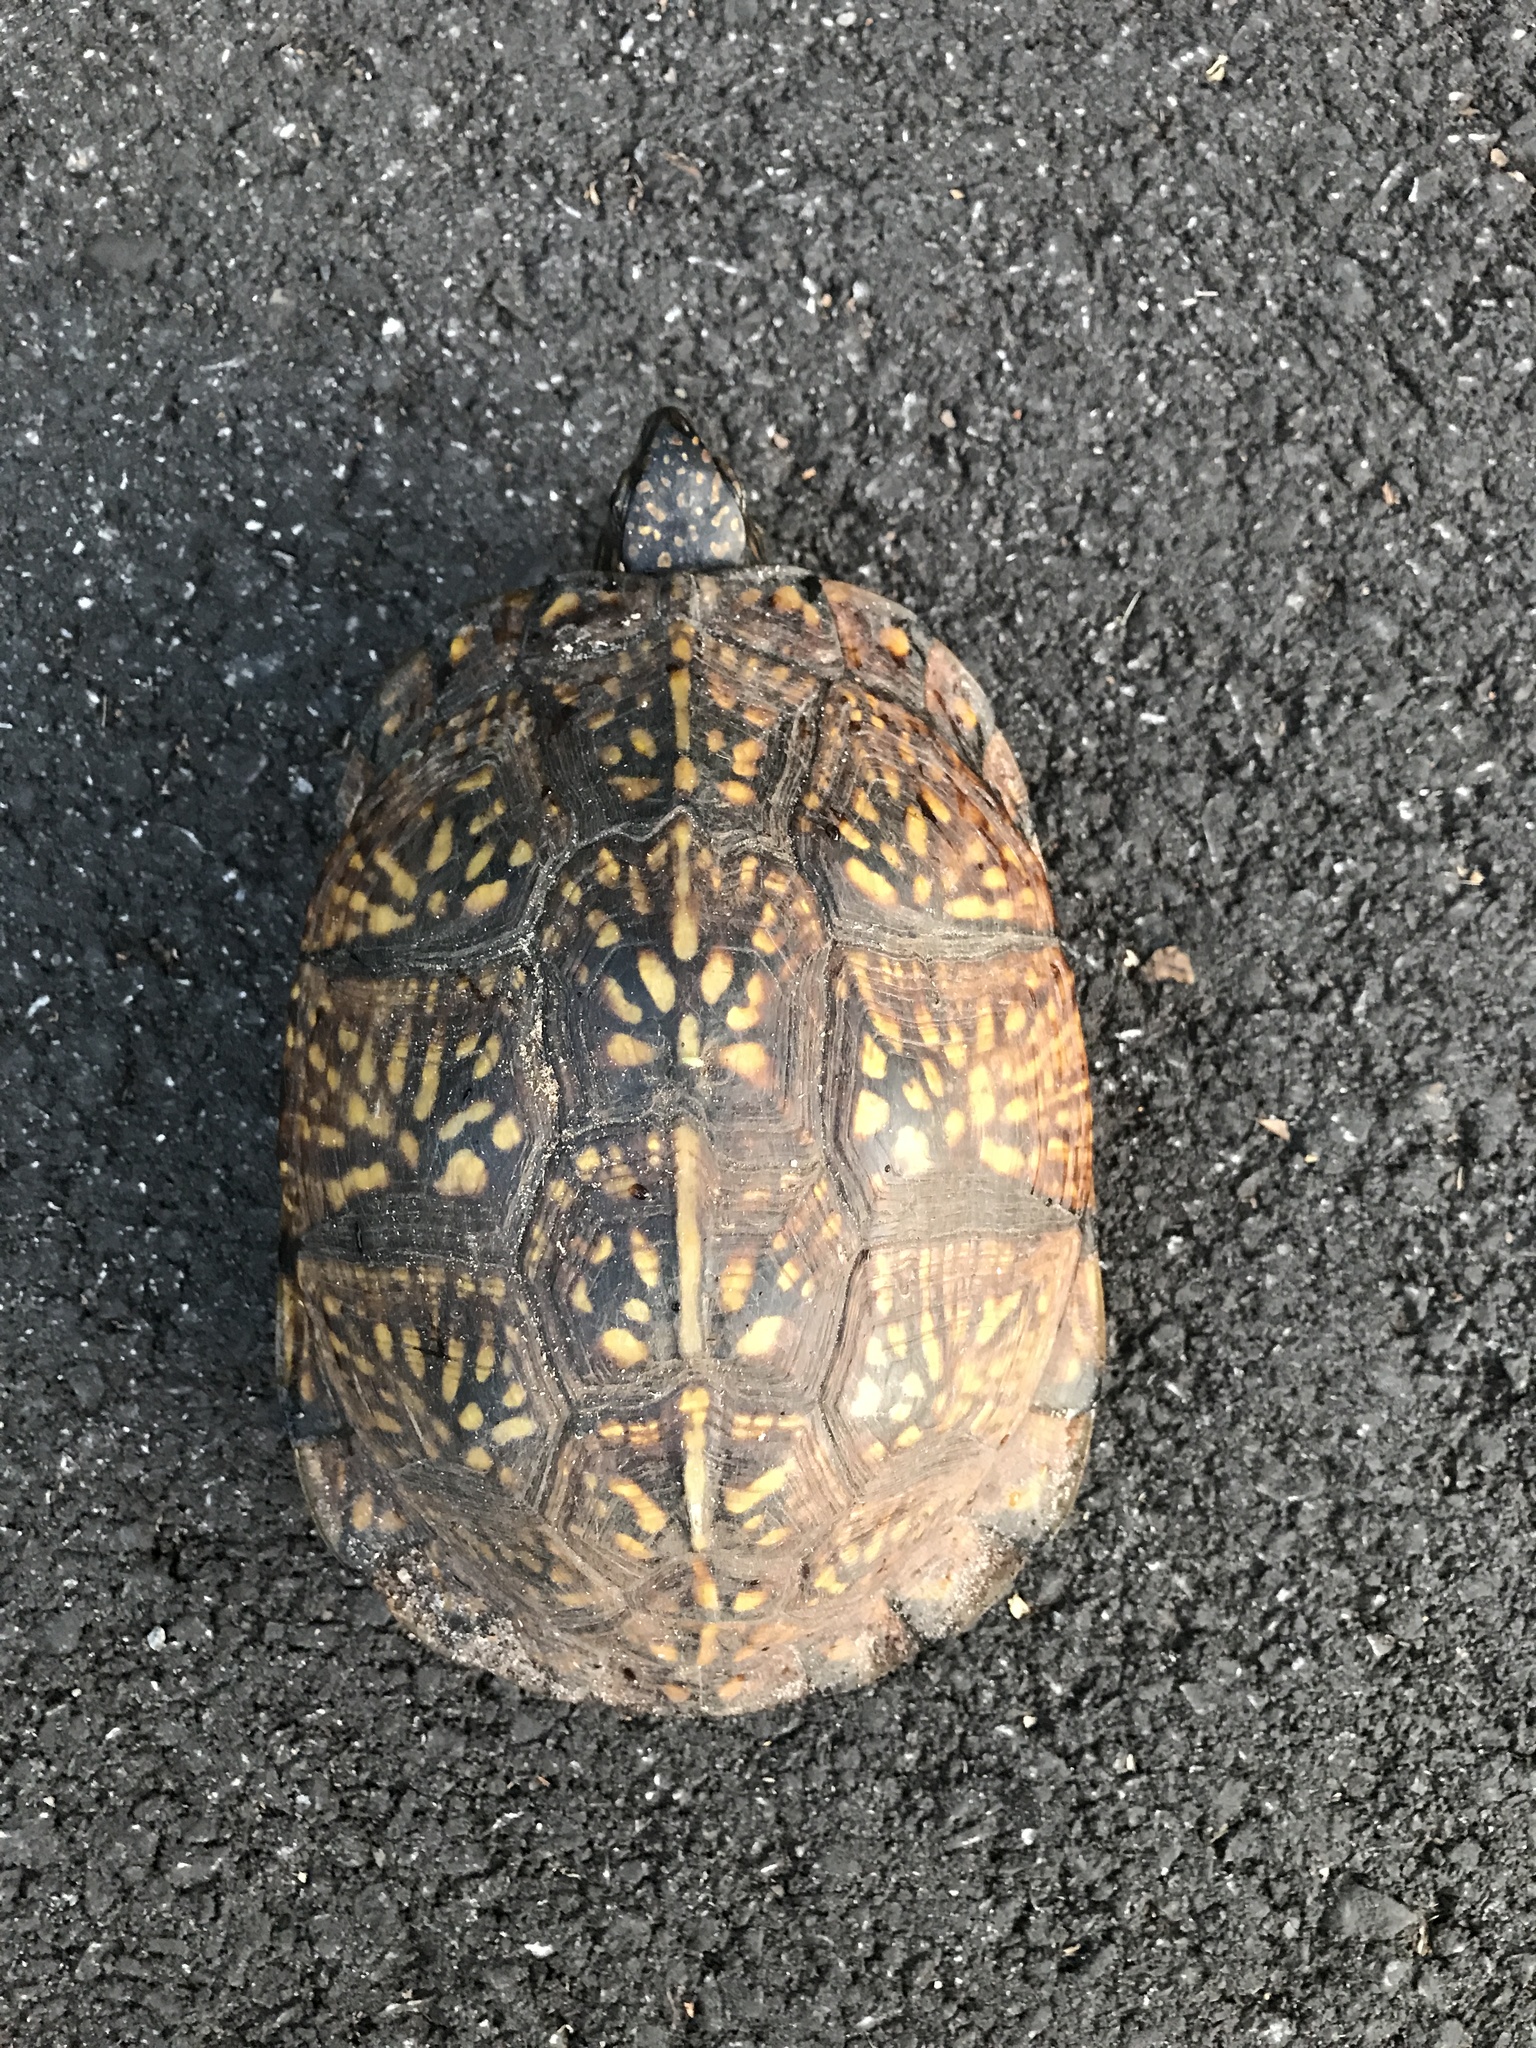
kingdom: Animalia
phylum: Chordata
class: Testudines
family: Emydidae
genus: Terrapene
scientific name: Terrapene carolina
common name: Common box turtle
